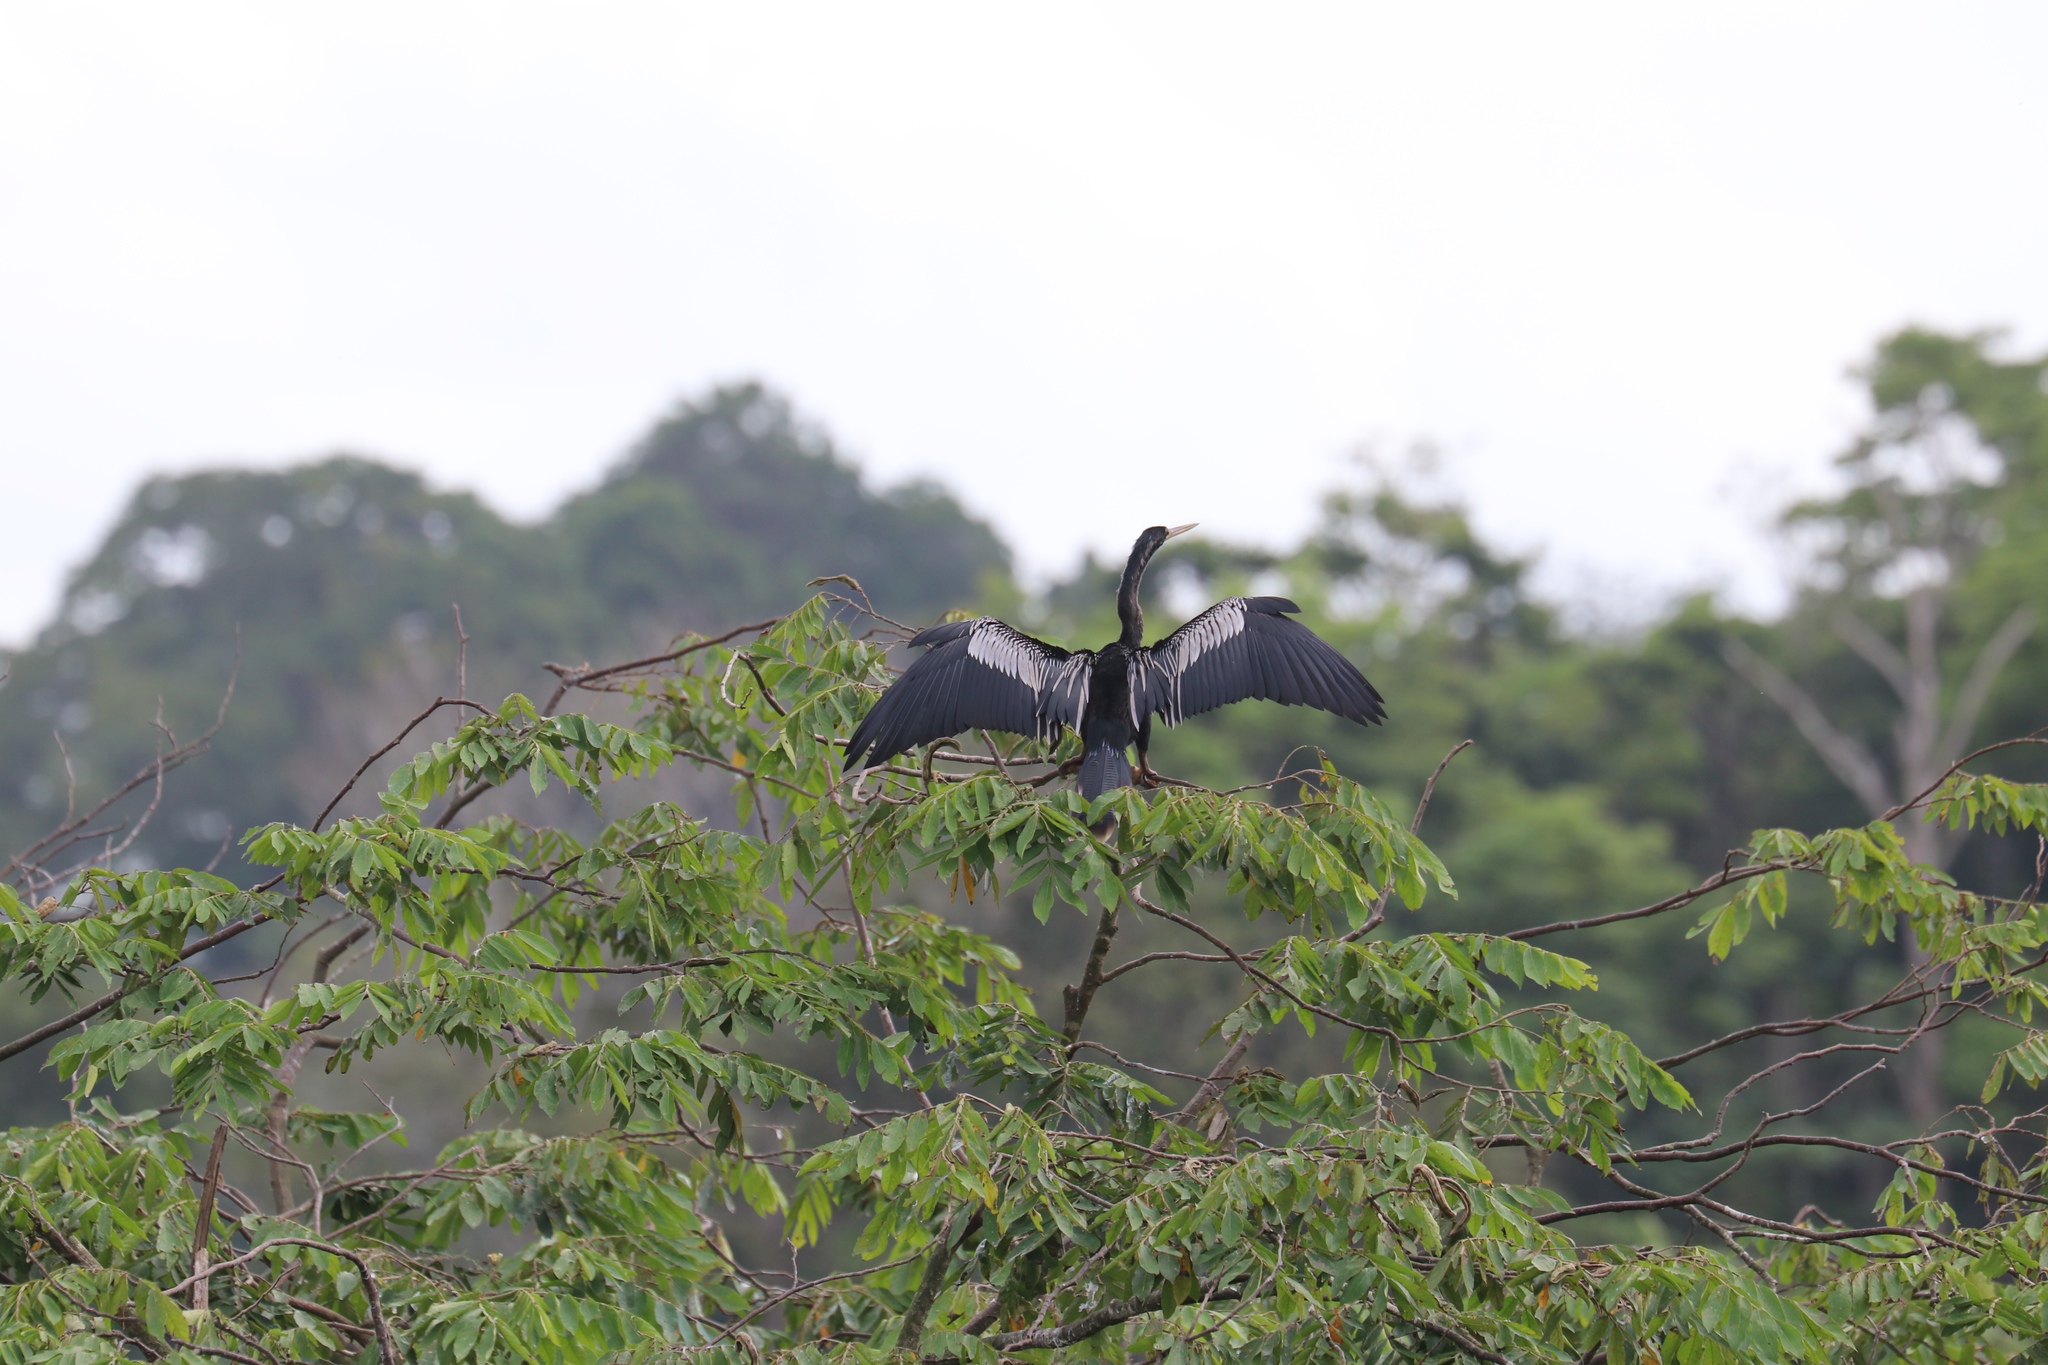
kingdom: Animalia
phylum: Chordata
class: Aves
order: Suliformes
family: Anhingidae
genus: Anhinga
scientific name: Anhinga anhinga
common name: Anhinga
